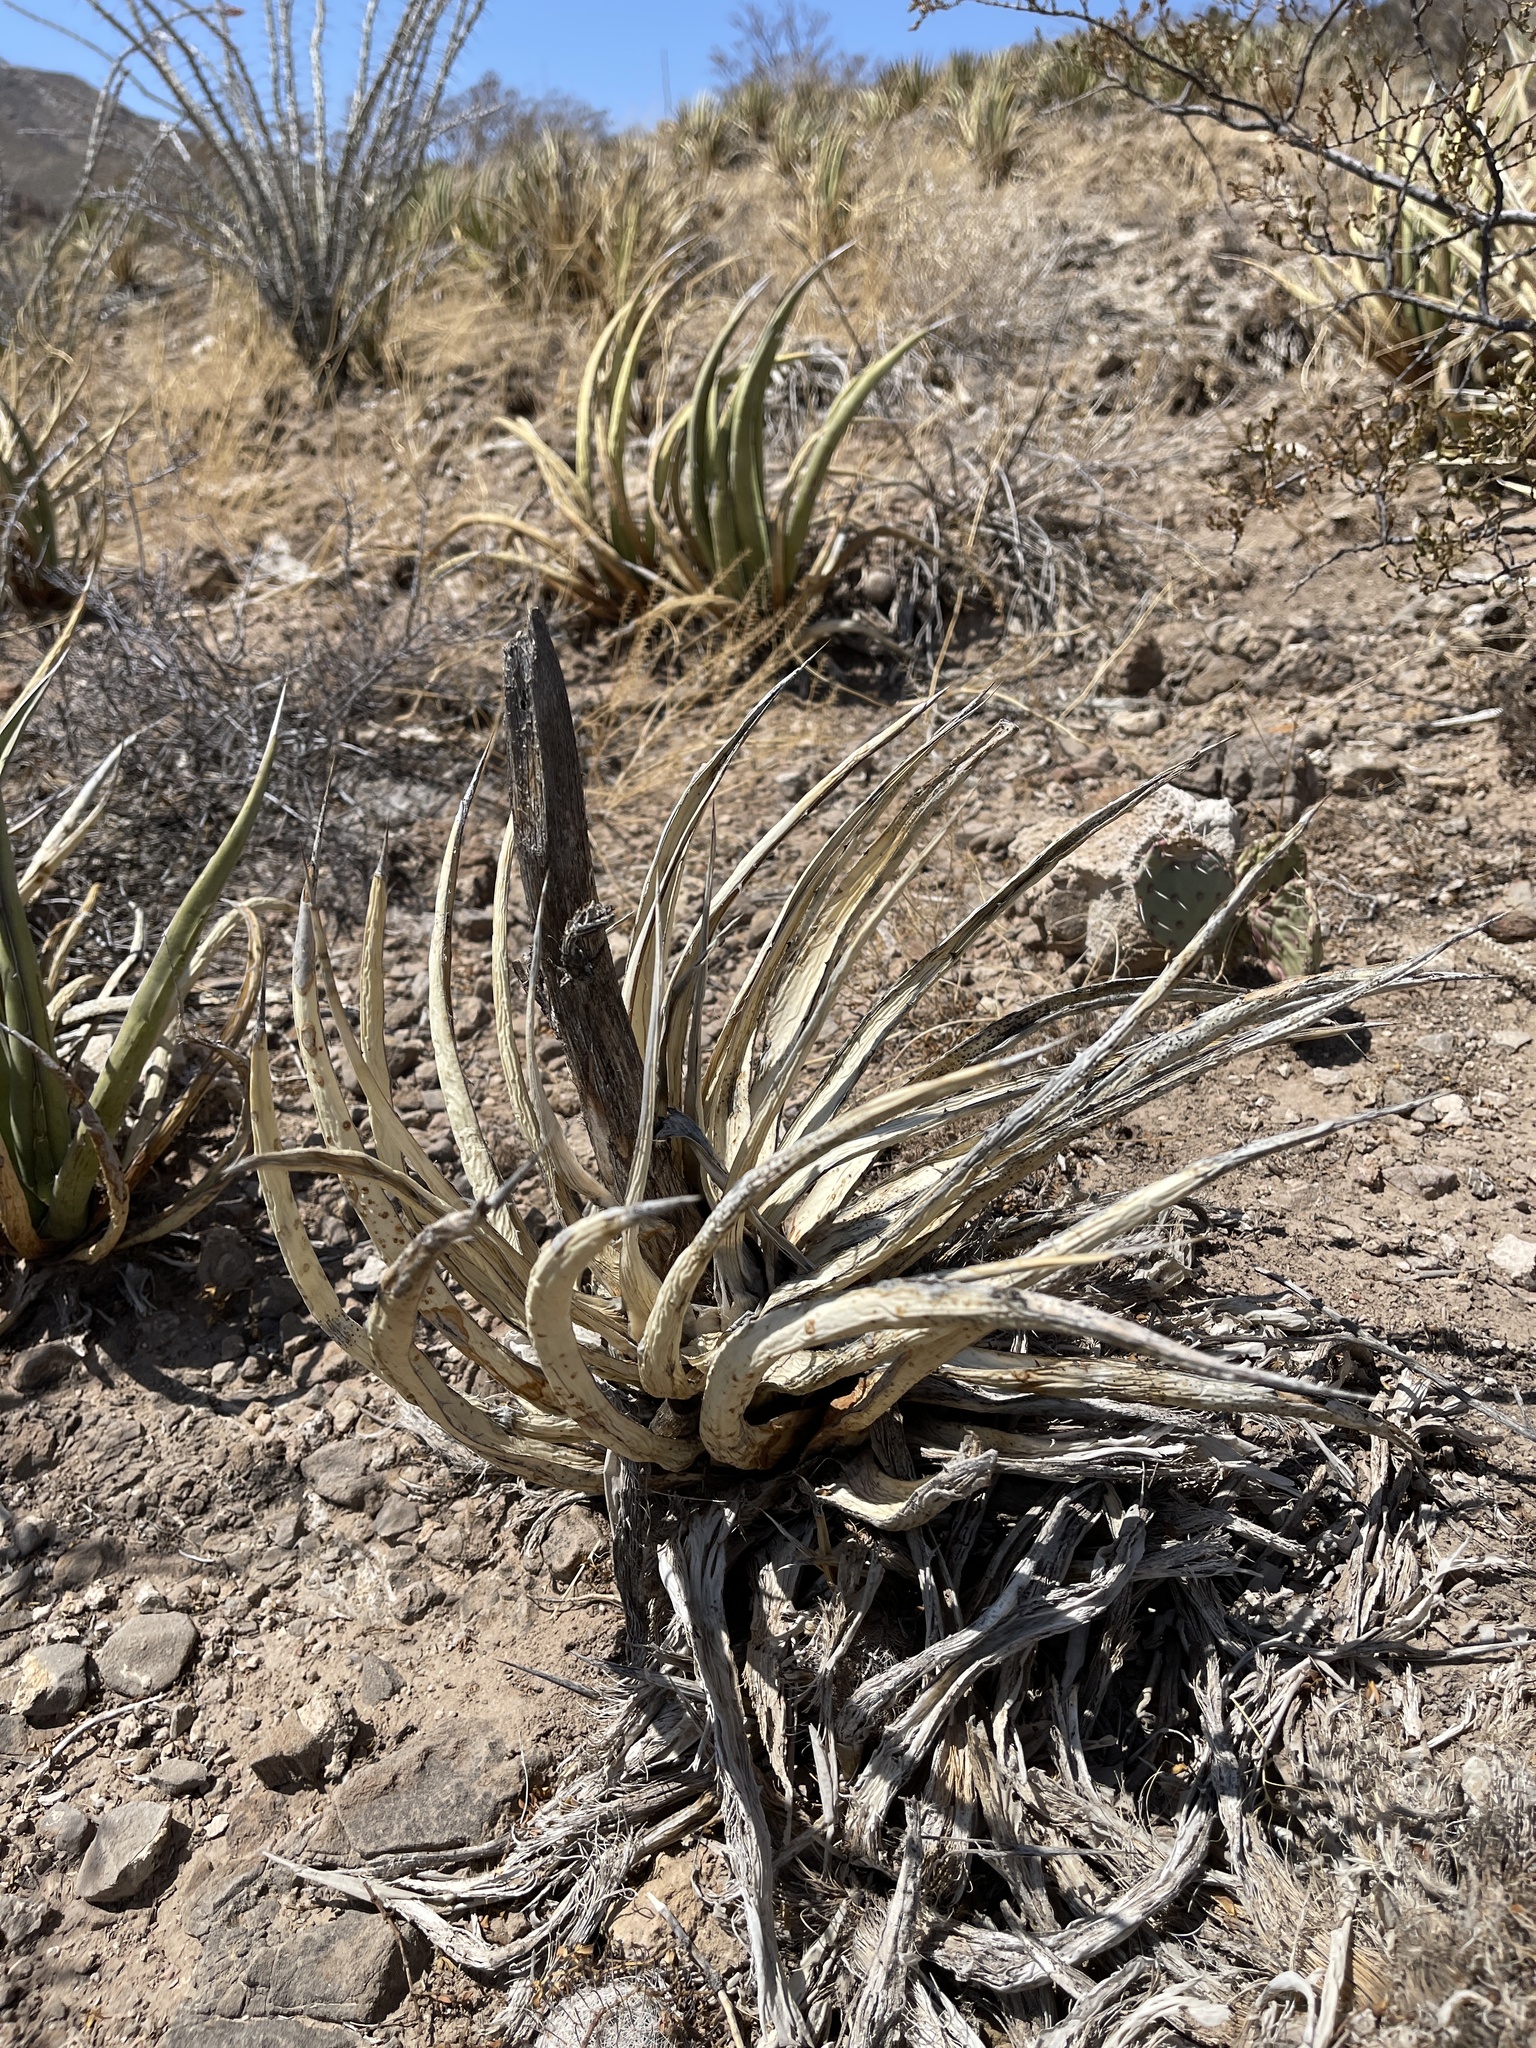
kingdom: Plantae
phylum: Tracheophyta
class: Liliopsida
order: Asparagales
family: Asparagaceae
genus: Agave
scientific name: Agave lechuguilla
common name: Lecheguilla agave
